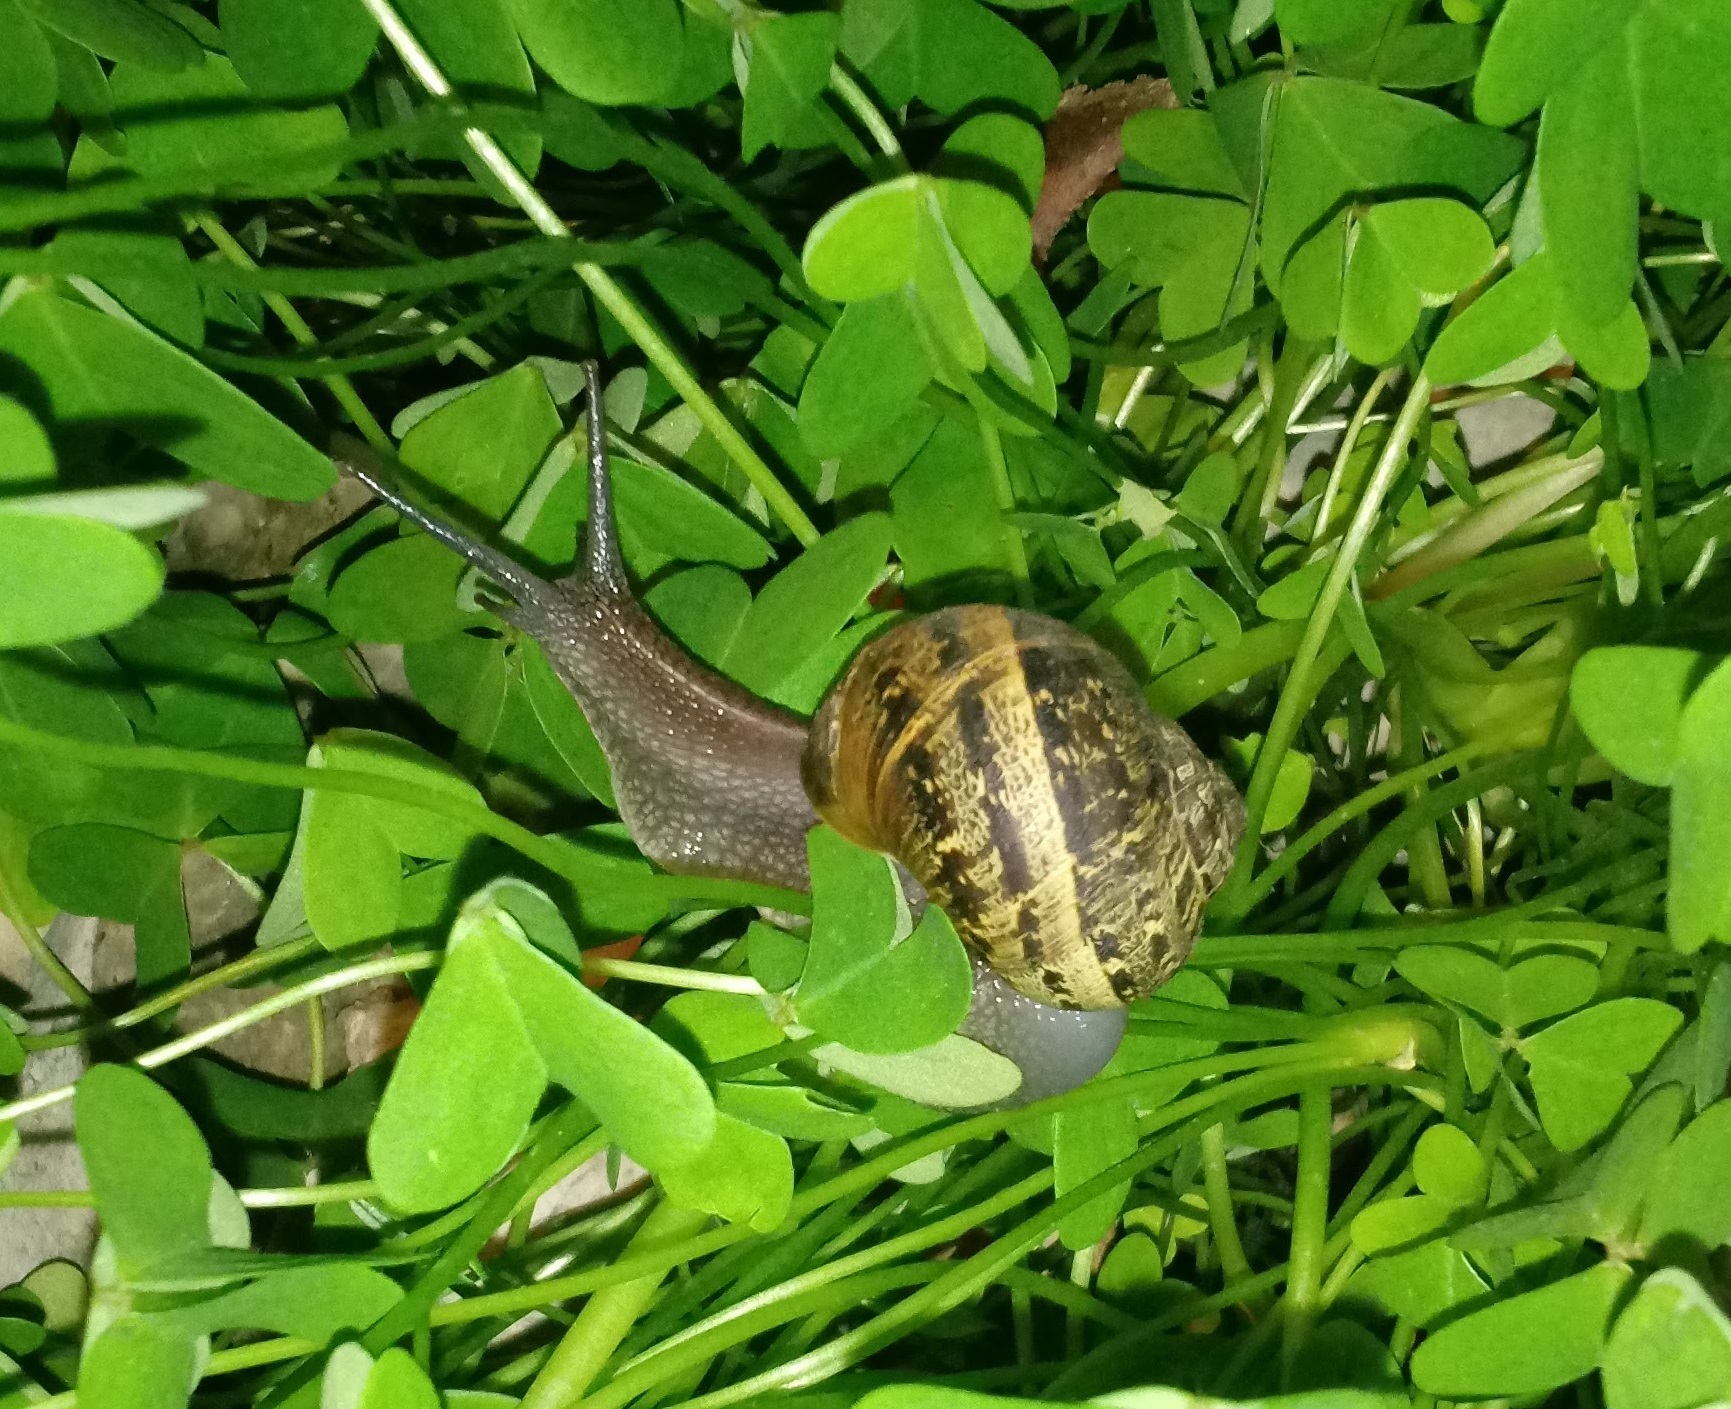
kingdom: Animalia
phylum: Mollusca
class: Gastropoda
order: Stylommatophora
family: Helicidae
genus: Cornu
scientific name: Cornu aspersum
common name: Brown garden snail
